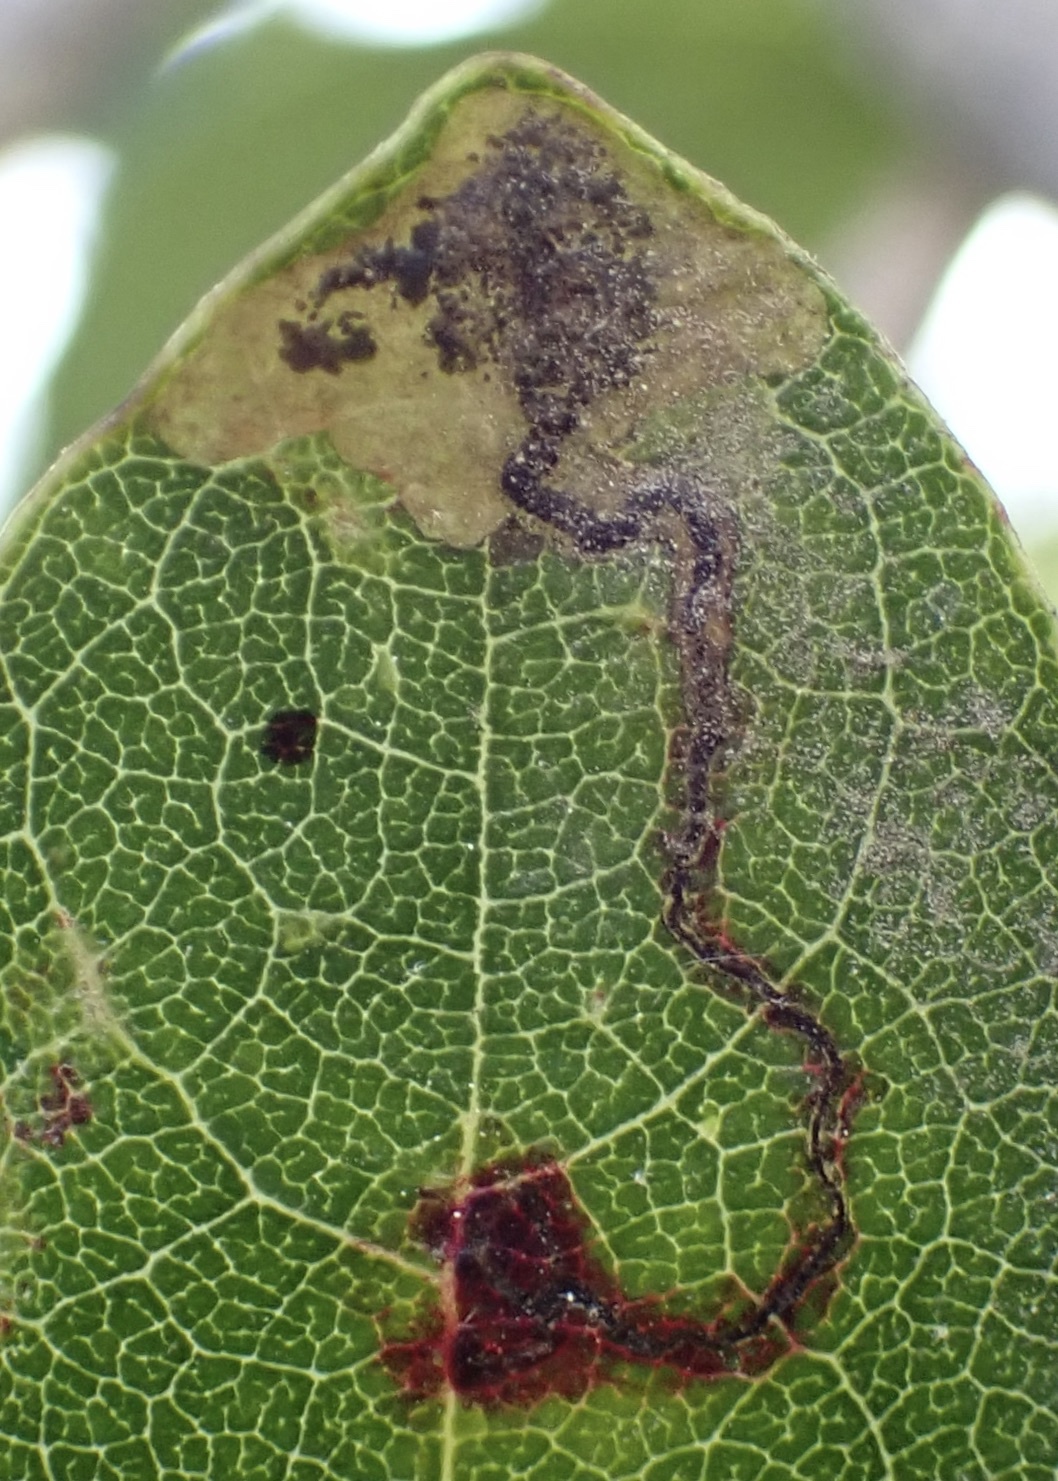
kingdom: Animalia
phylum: Arthropoda
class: Insecta
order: Lepidoptera
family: Nepticulidae
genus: Ectoedemia
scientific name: Ectoedemia nyssaefoliella
